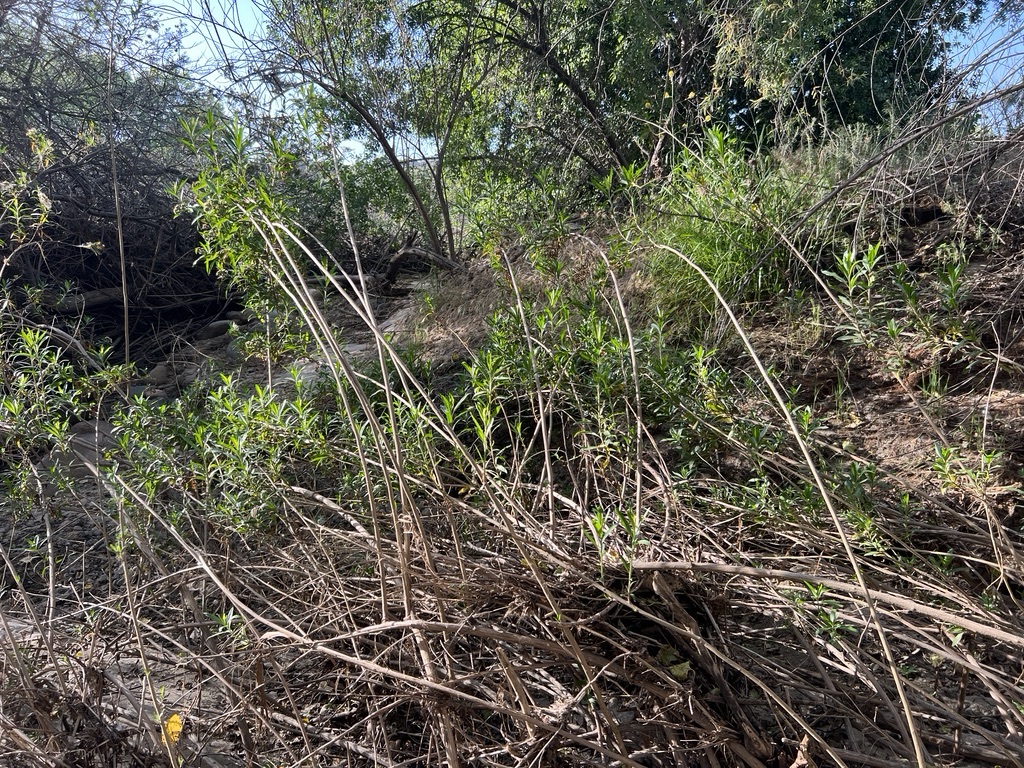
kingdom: Plantae
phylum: Tracheophyta
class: Magnoliopsida
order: Asterales
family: Asteraceae
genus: Baccharis
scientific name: Baccharis salicifolia
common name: Sticky baccharis
